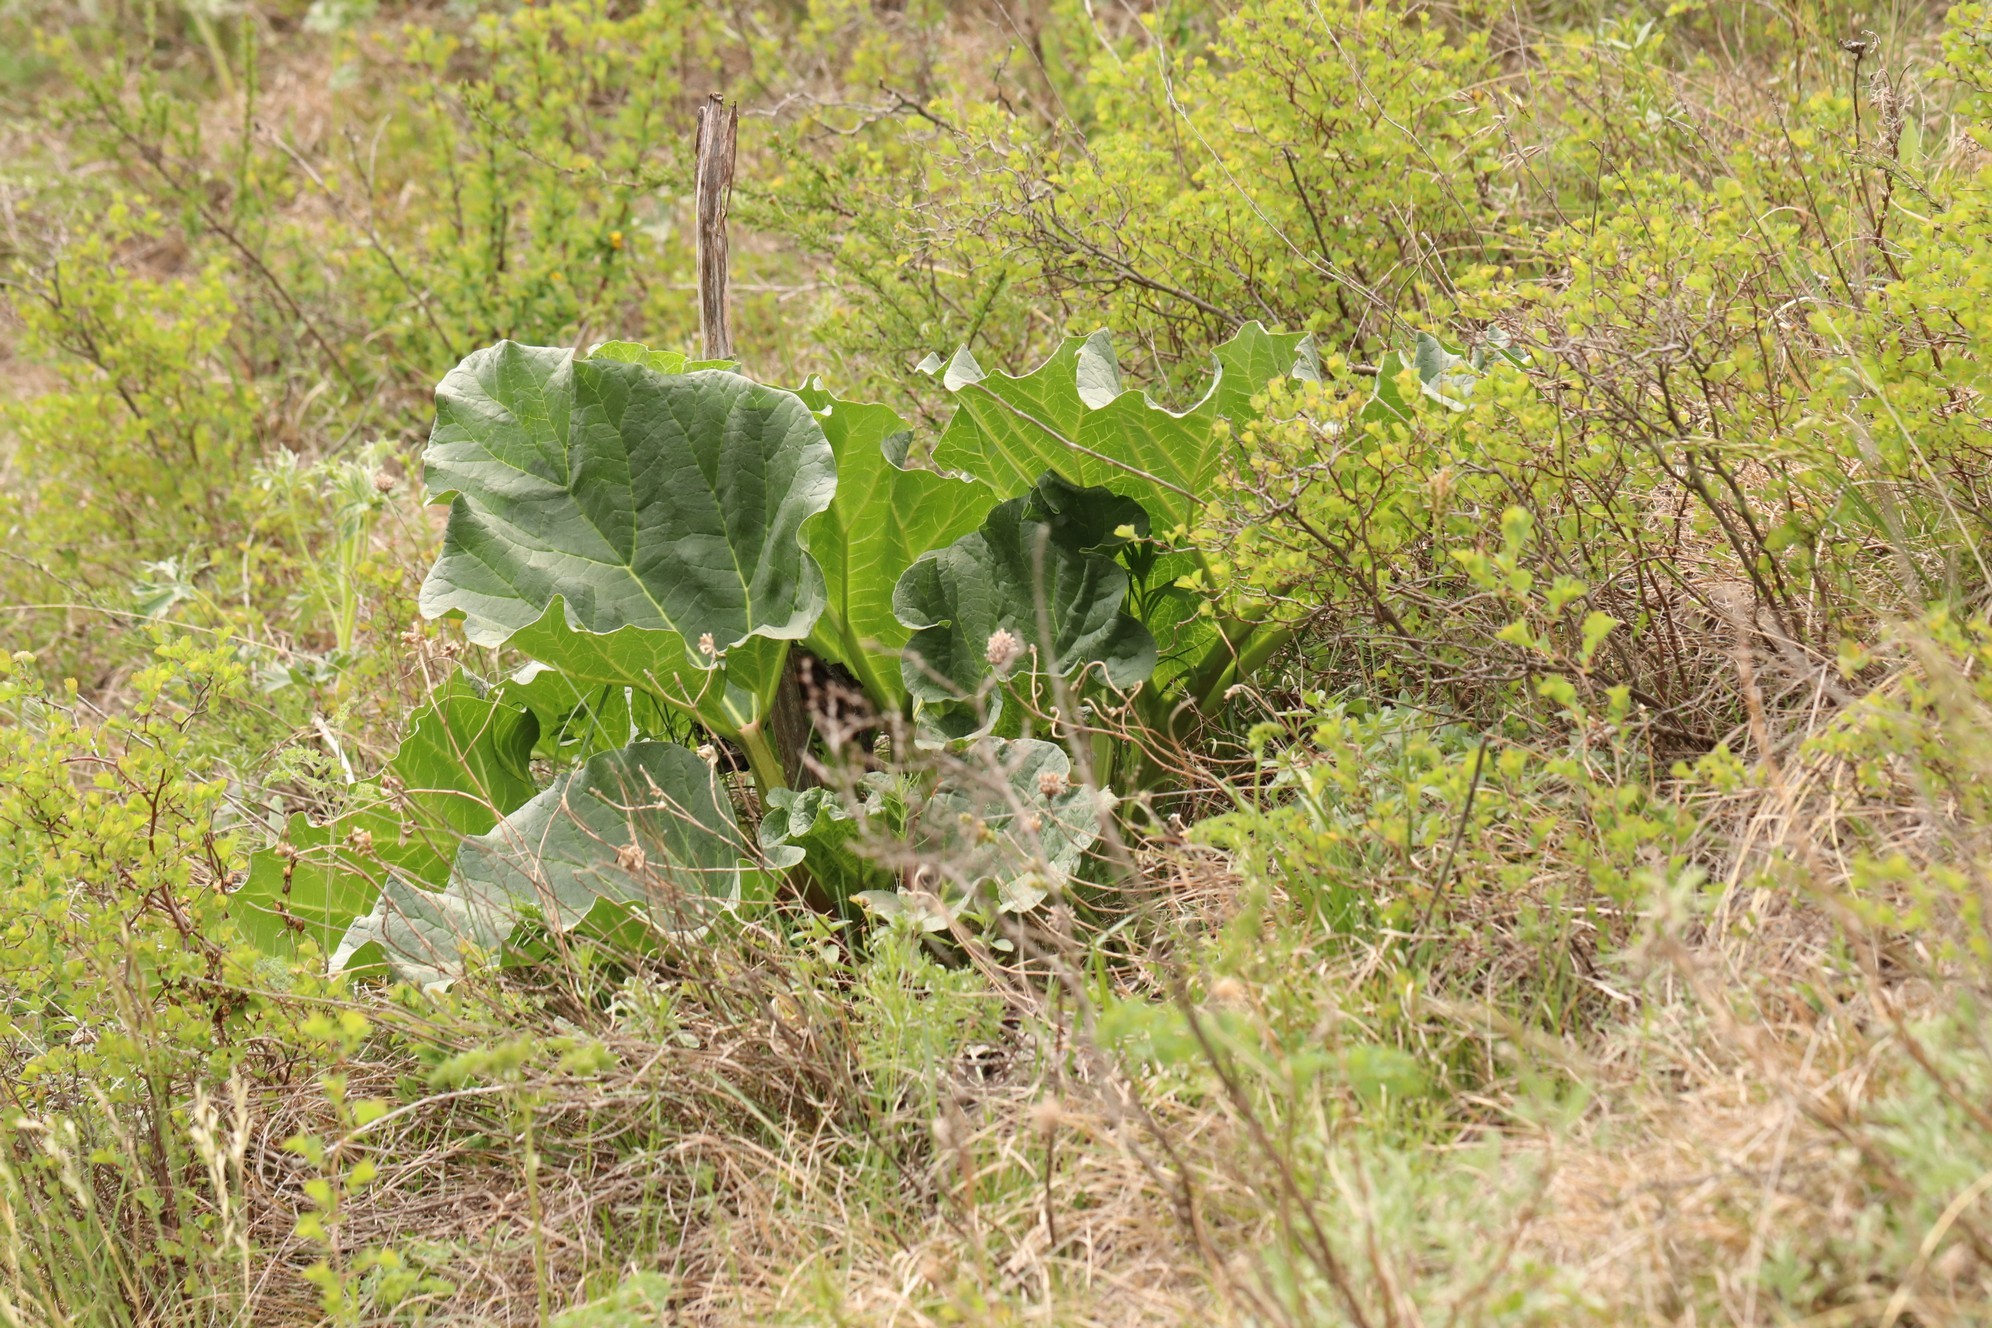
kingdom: Plantae
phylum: Tracheophyta
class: Magnoliopsida
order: Caryophyllales
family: Polygonaceae
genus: Rheum
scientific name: Rheum compactum
